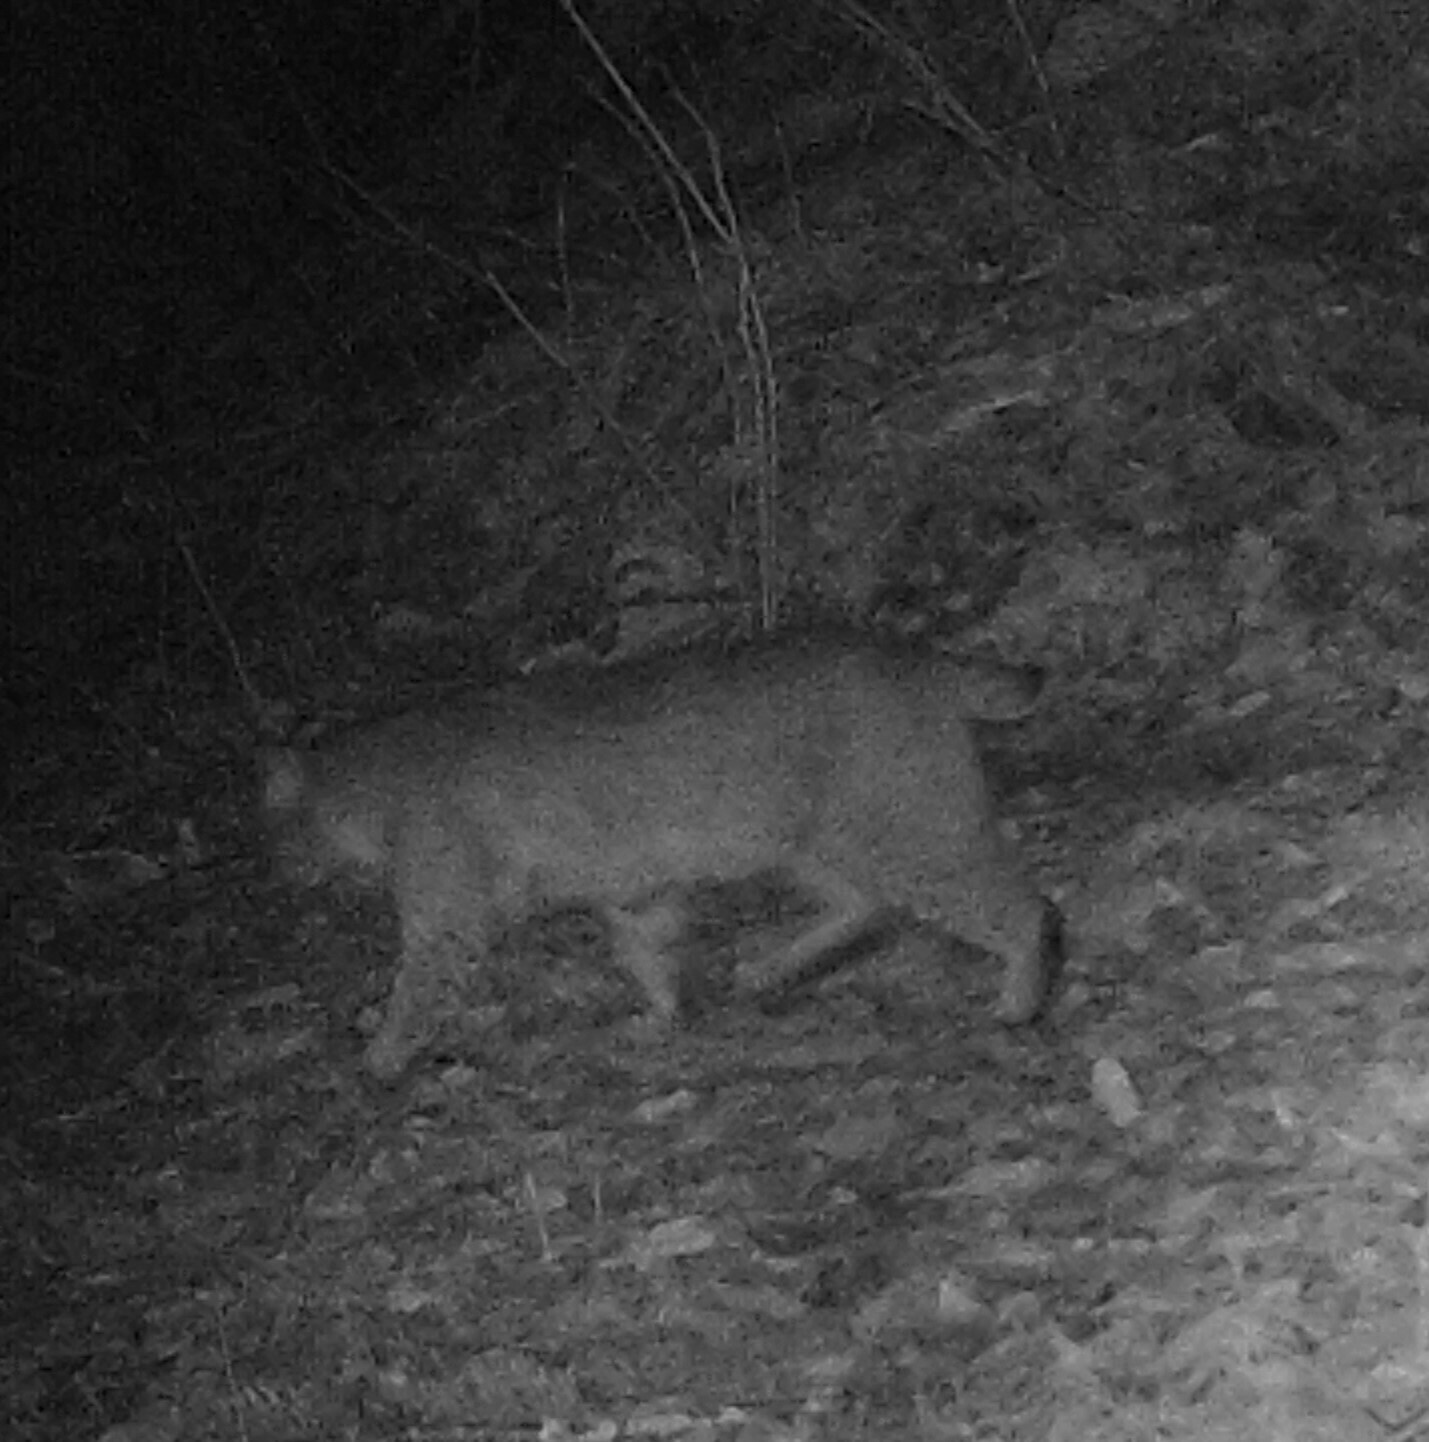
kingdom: Animalia
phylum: Chordata
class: Mammalia
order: Carnivora
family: Felidae
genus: Lynx
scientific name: Lynx rufus
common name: Bobcat
